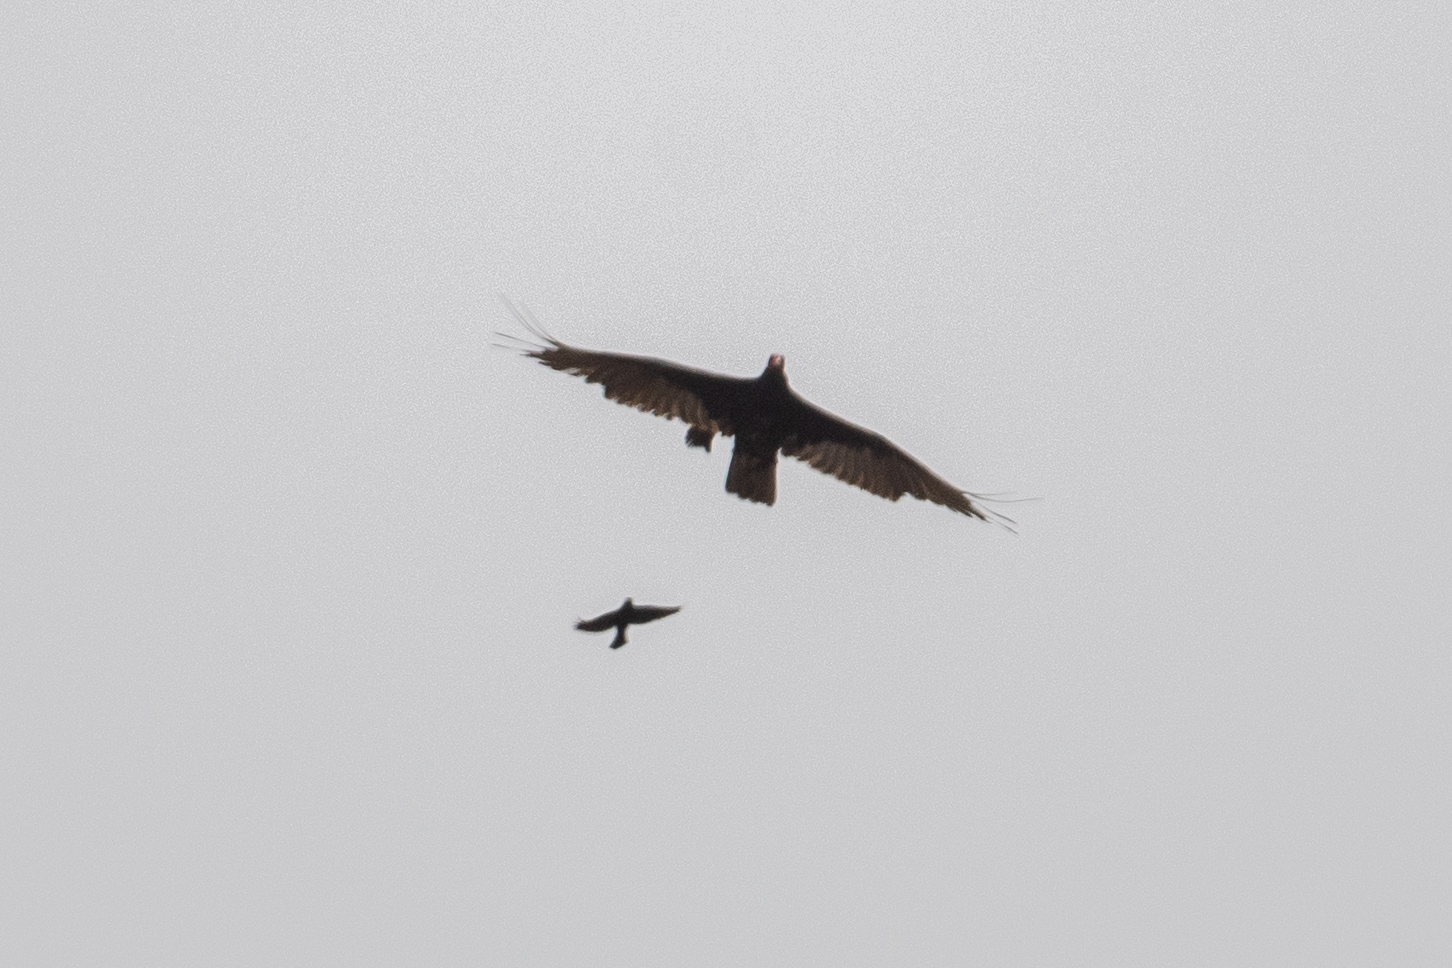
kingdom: Animalia
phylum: Chordata
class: Aves
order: Accipitriformes
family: Cathartidae
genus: Cathartes
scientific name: Cathartes aura
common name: Turkey vulture
